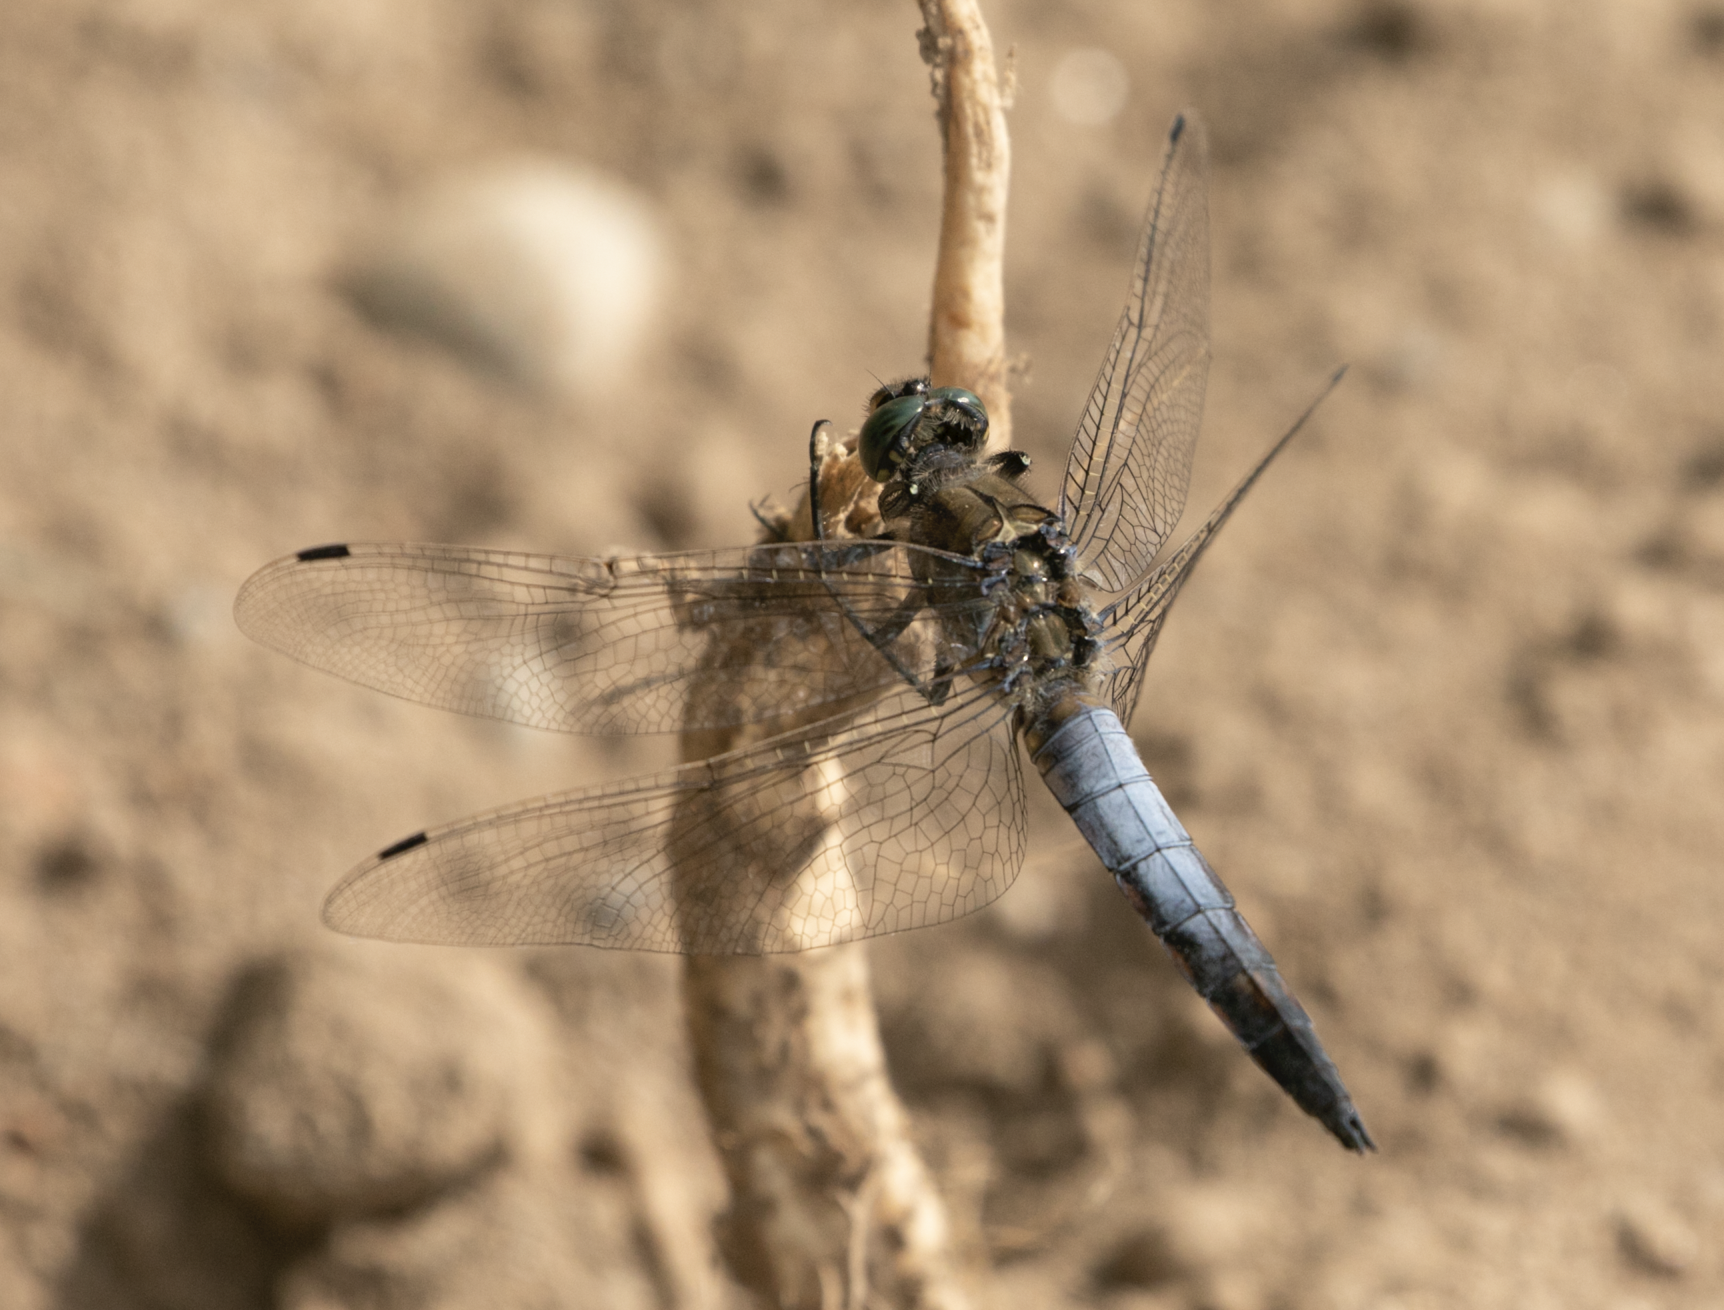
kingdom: Animalia
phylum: Arthropoda
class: Insecta
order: Odonata
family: Libellulidae
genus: Orthetrum
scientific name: Orthetrum cancellatum
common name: Black-tailed skimmer
